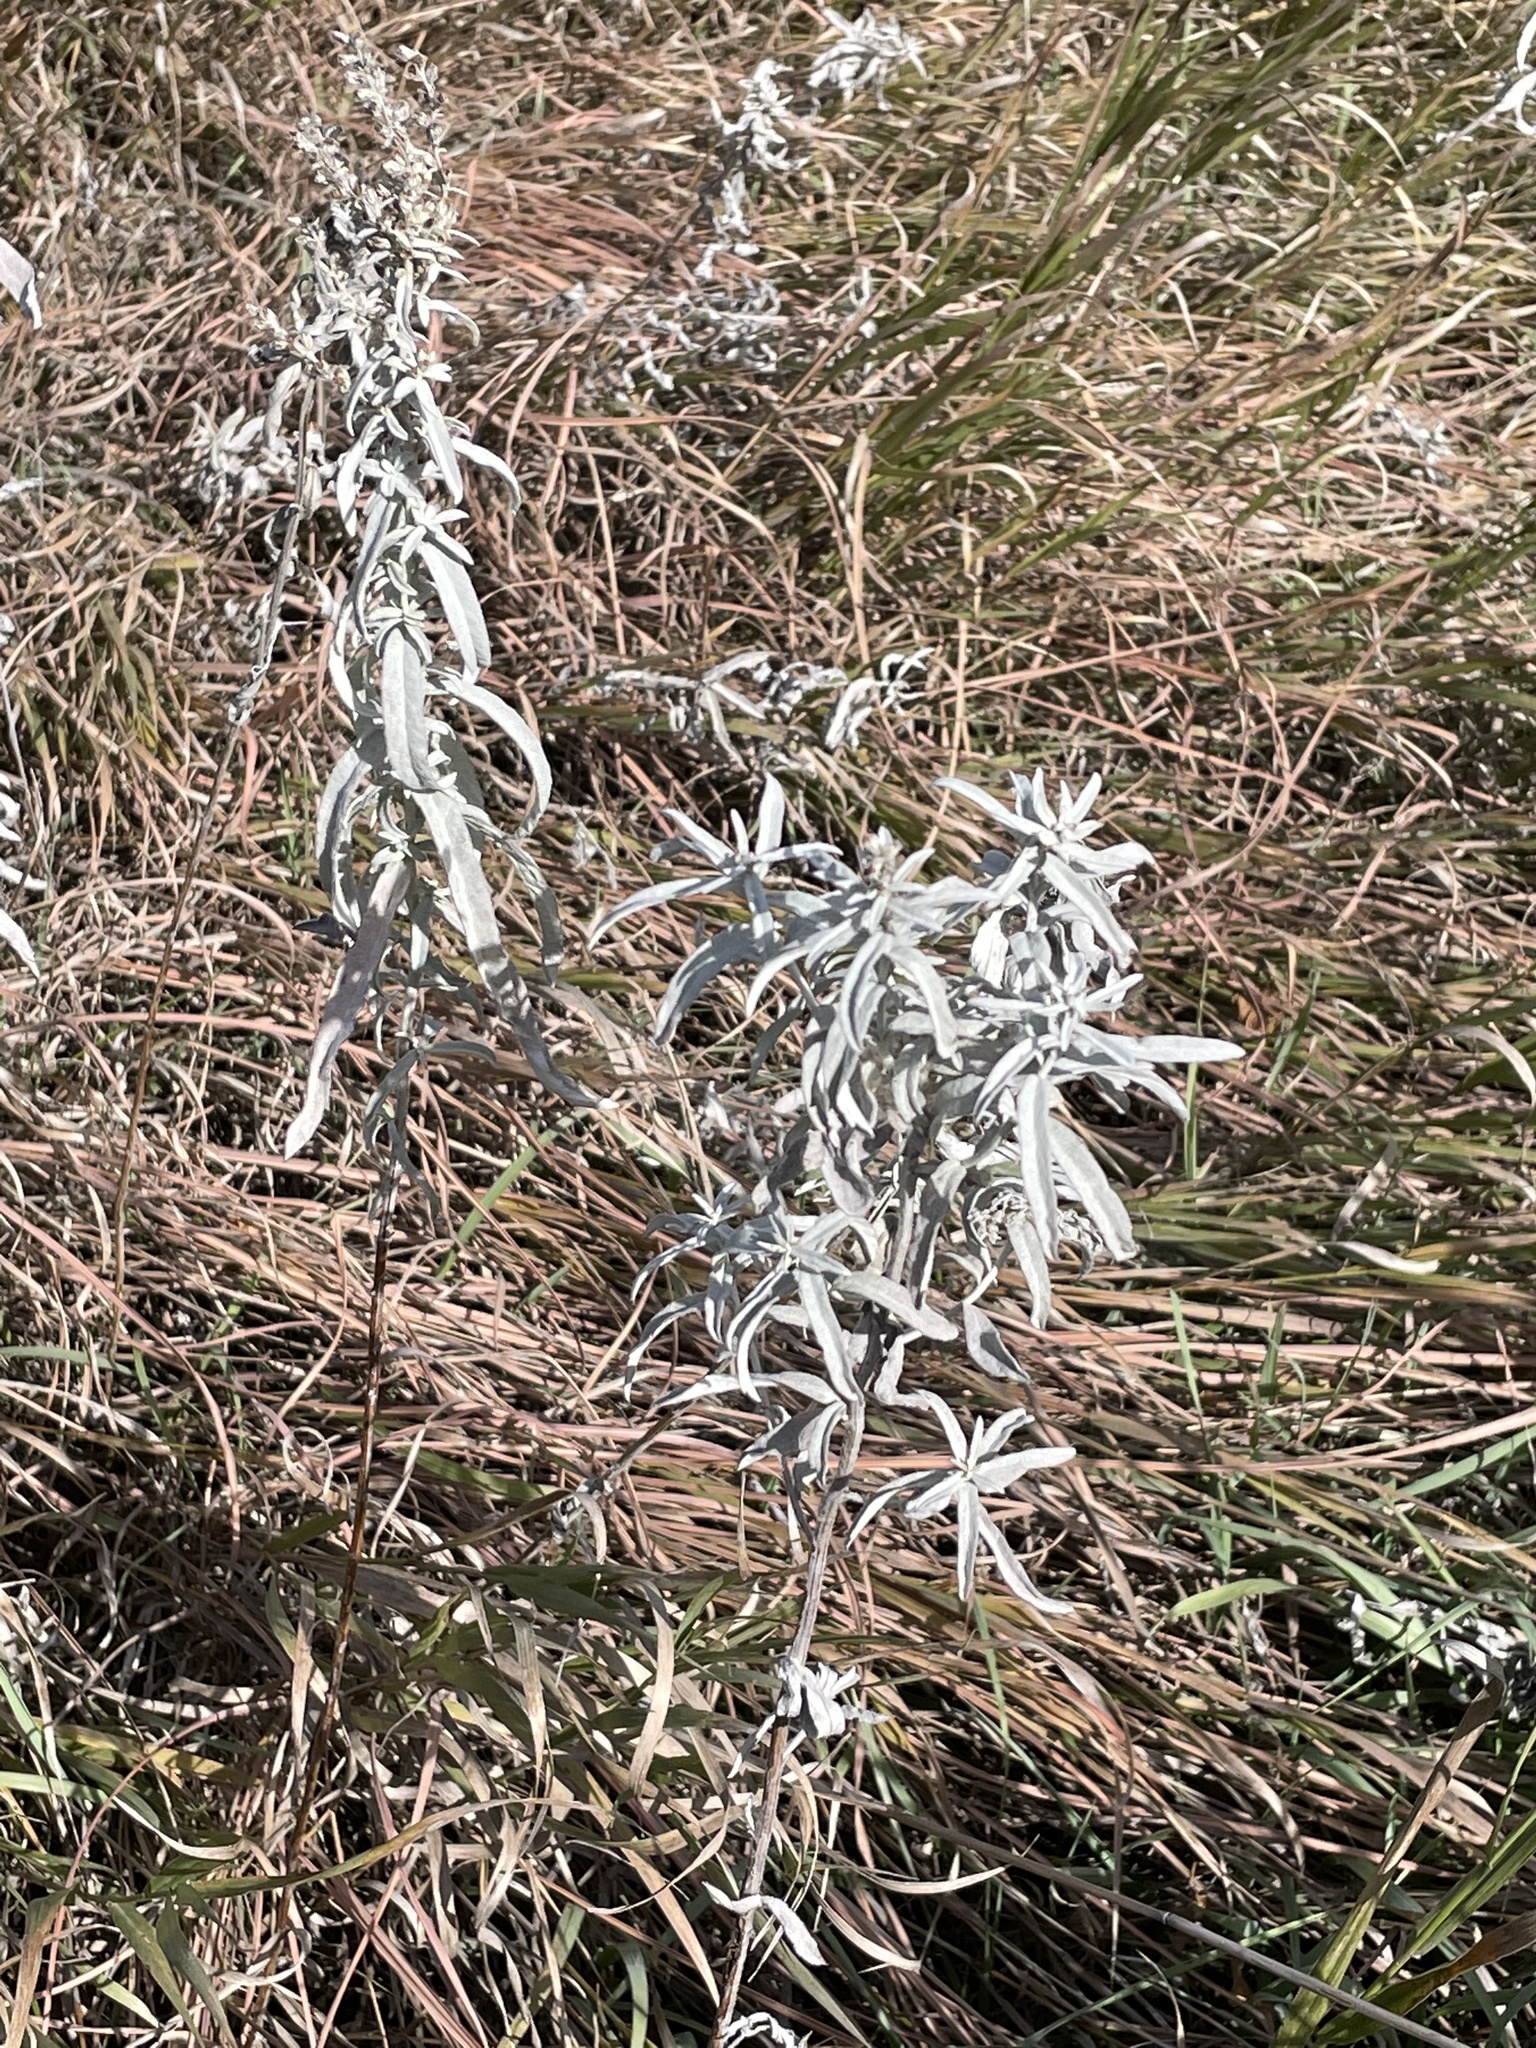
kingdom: Plantae
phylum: Tracheophyta
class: Magnoliopsida
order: Asterales
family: Asteraceae
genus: Artemisia
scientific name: Artemisia ludoviciana
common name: Western mugwort
